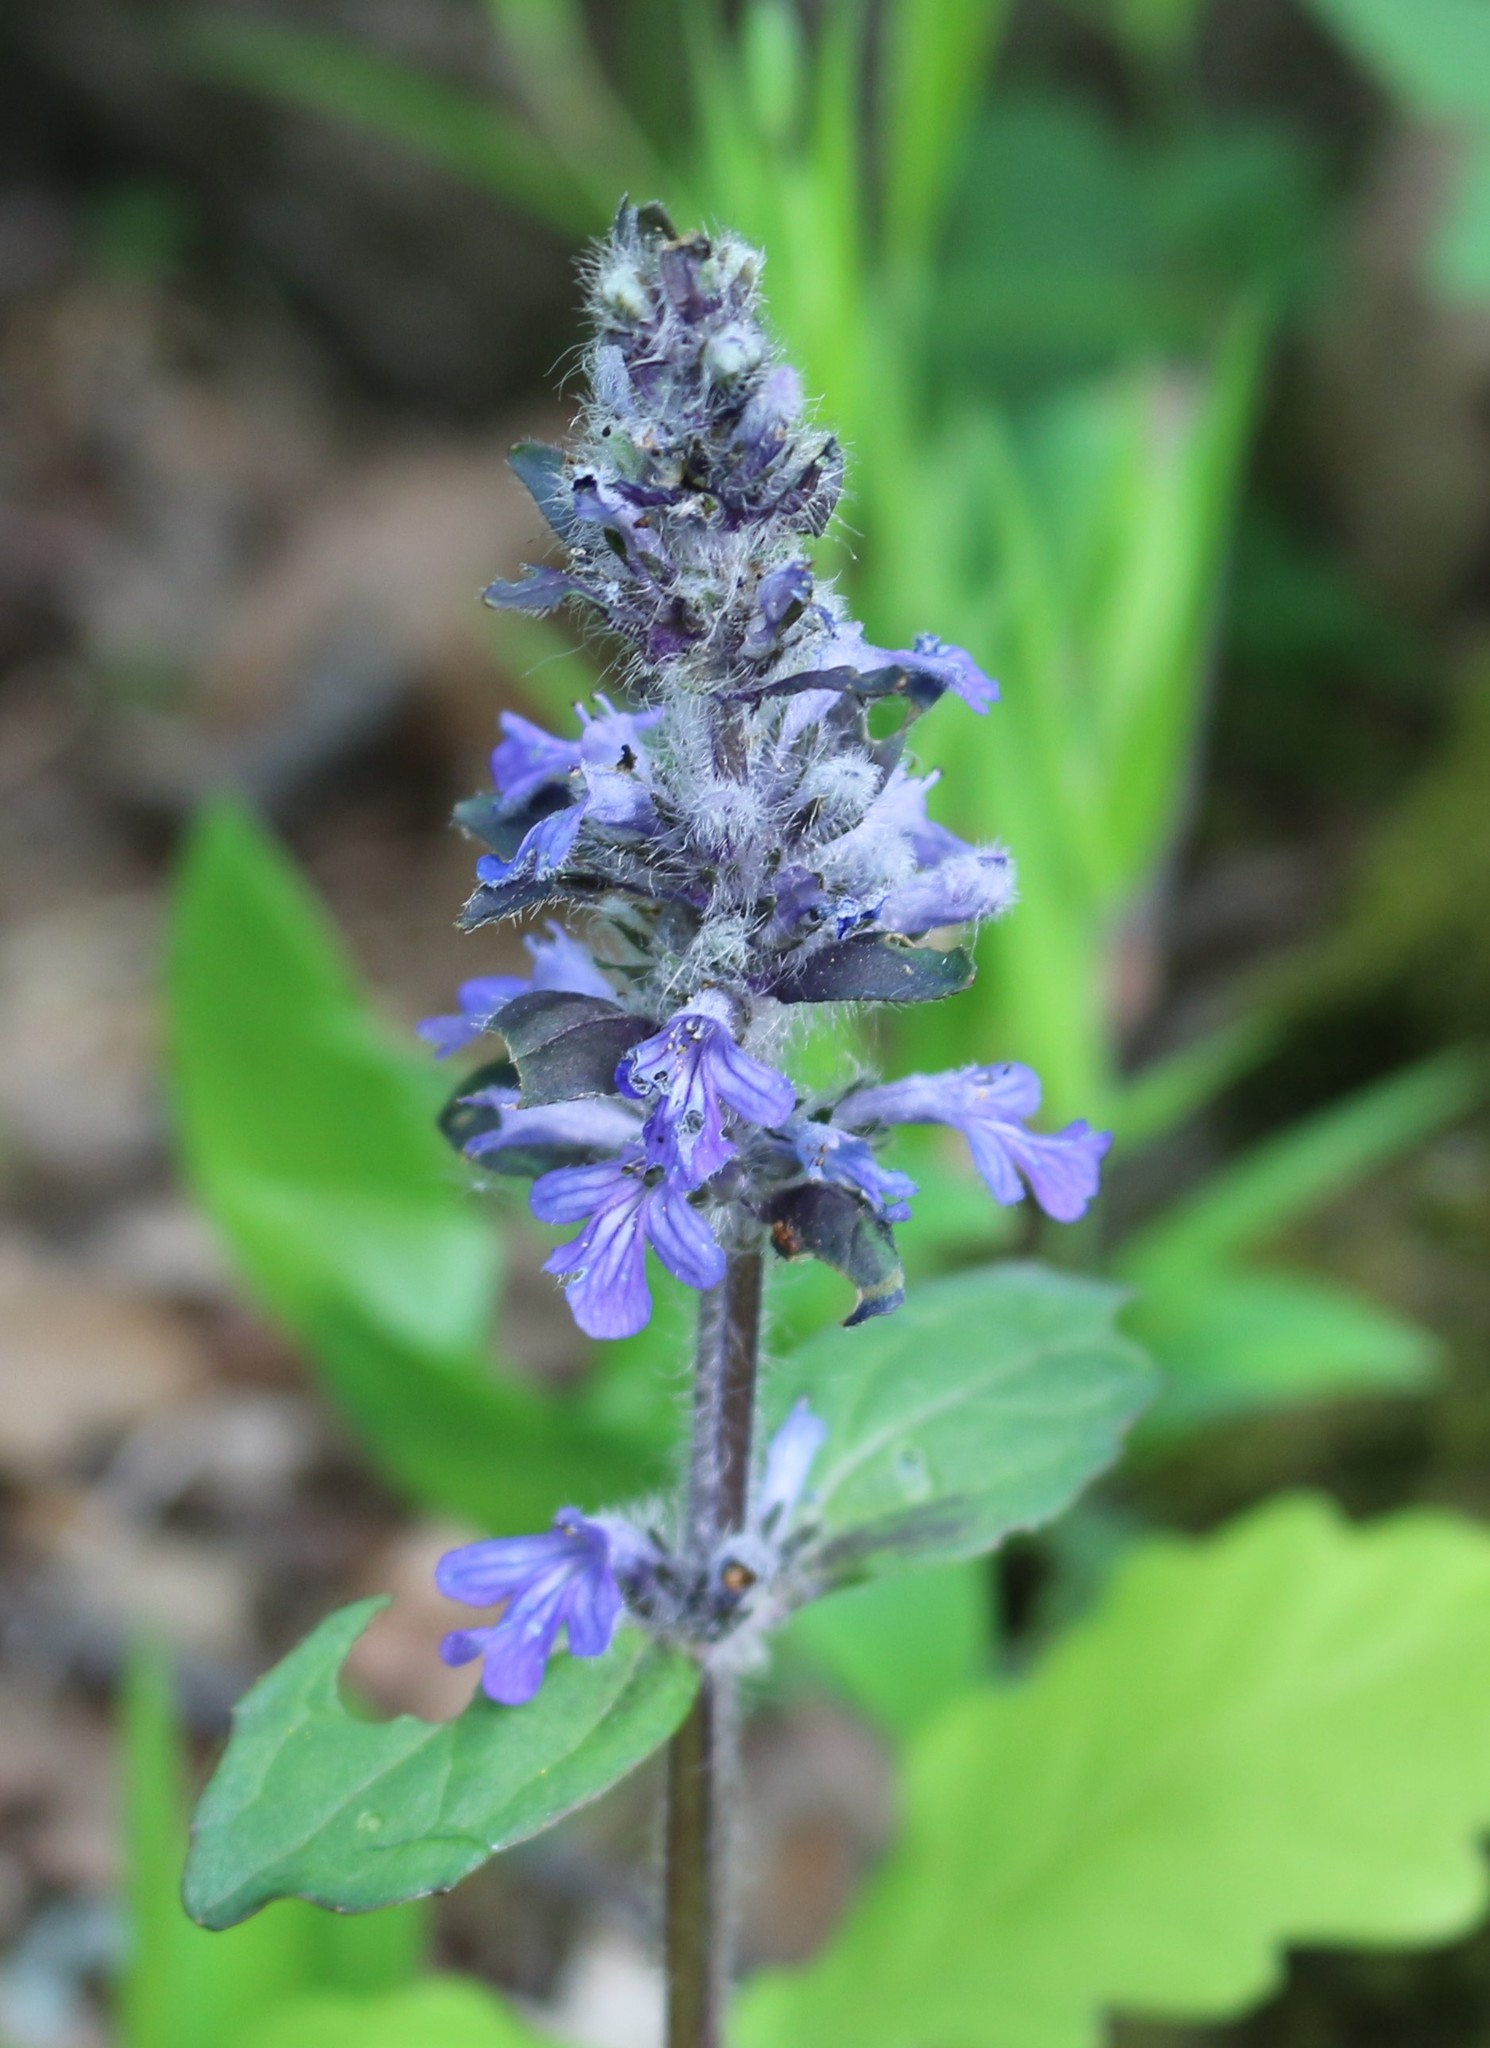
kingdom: Plantae
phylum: Tracheophyta
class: Magnoliopsida
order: Lamiales
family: Lamiaceae
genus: Ajuga
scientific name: Ajuga reptans
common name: Bugle
